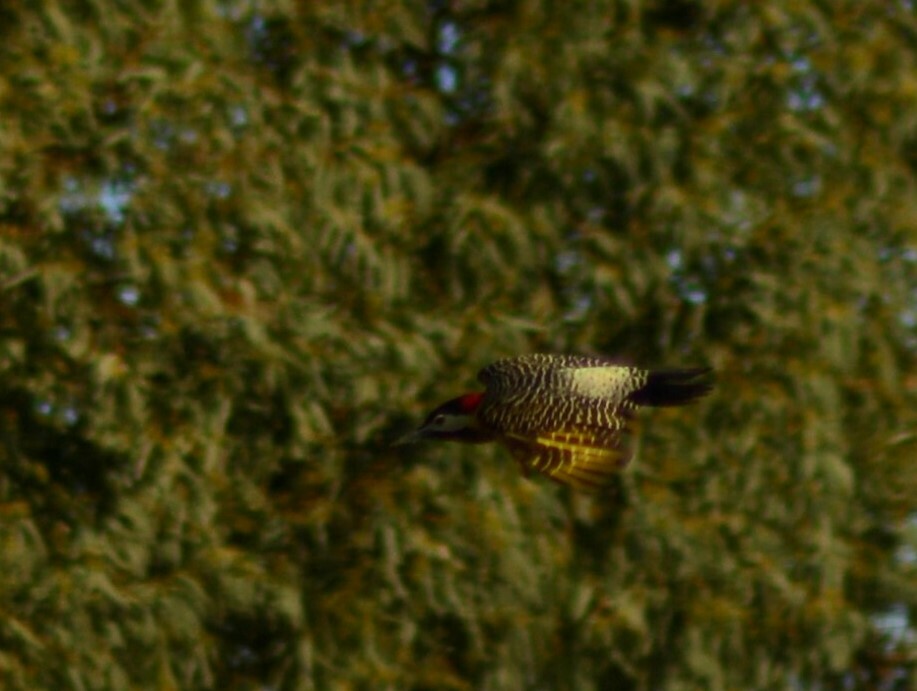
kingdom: Animalia
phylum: Chordata
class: Aves
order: Piciformes
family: Picidae
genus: Colaptes
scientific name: Colaptes melanochloros
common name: Green-barred woodpecker
